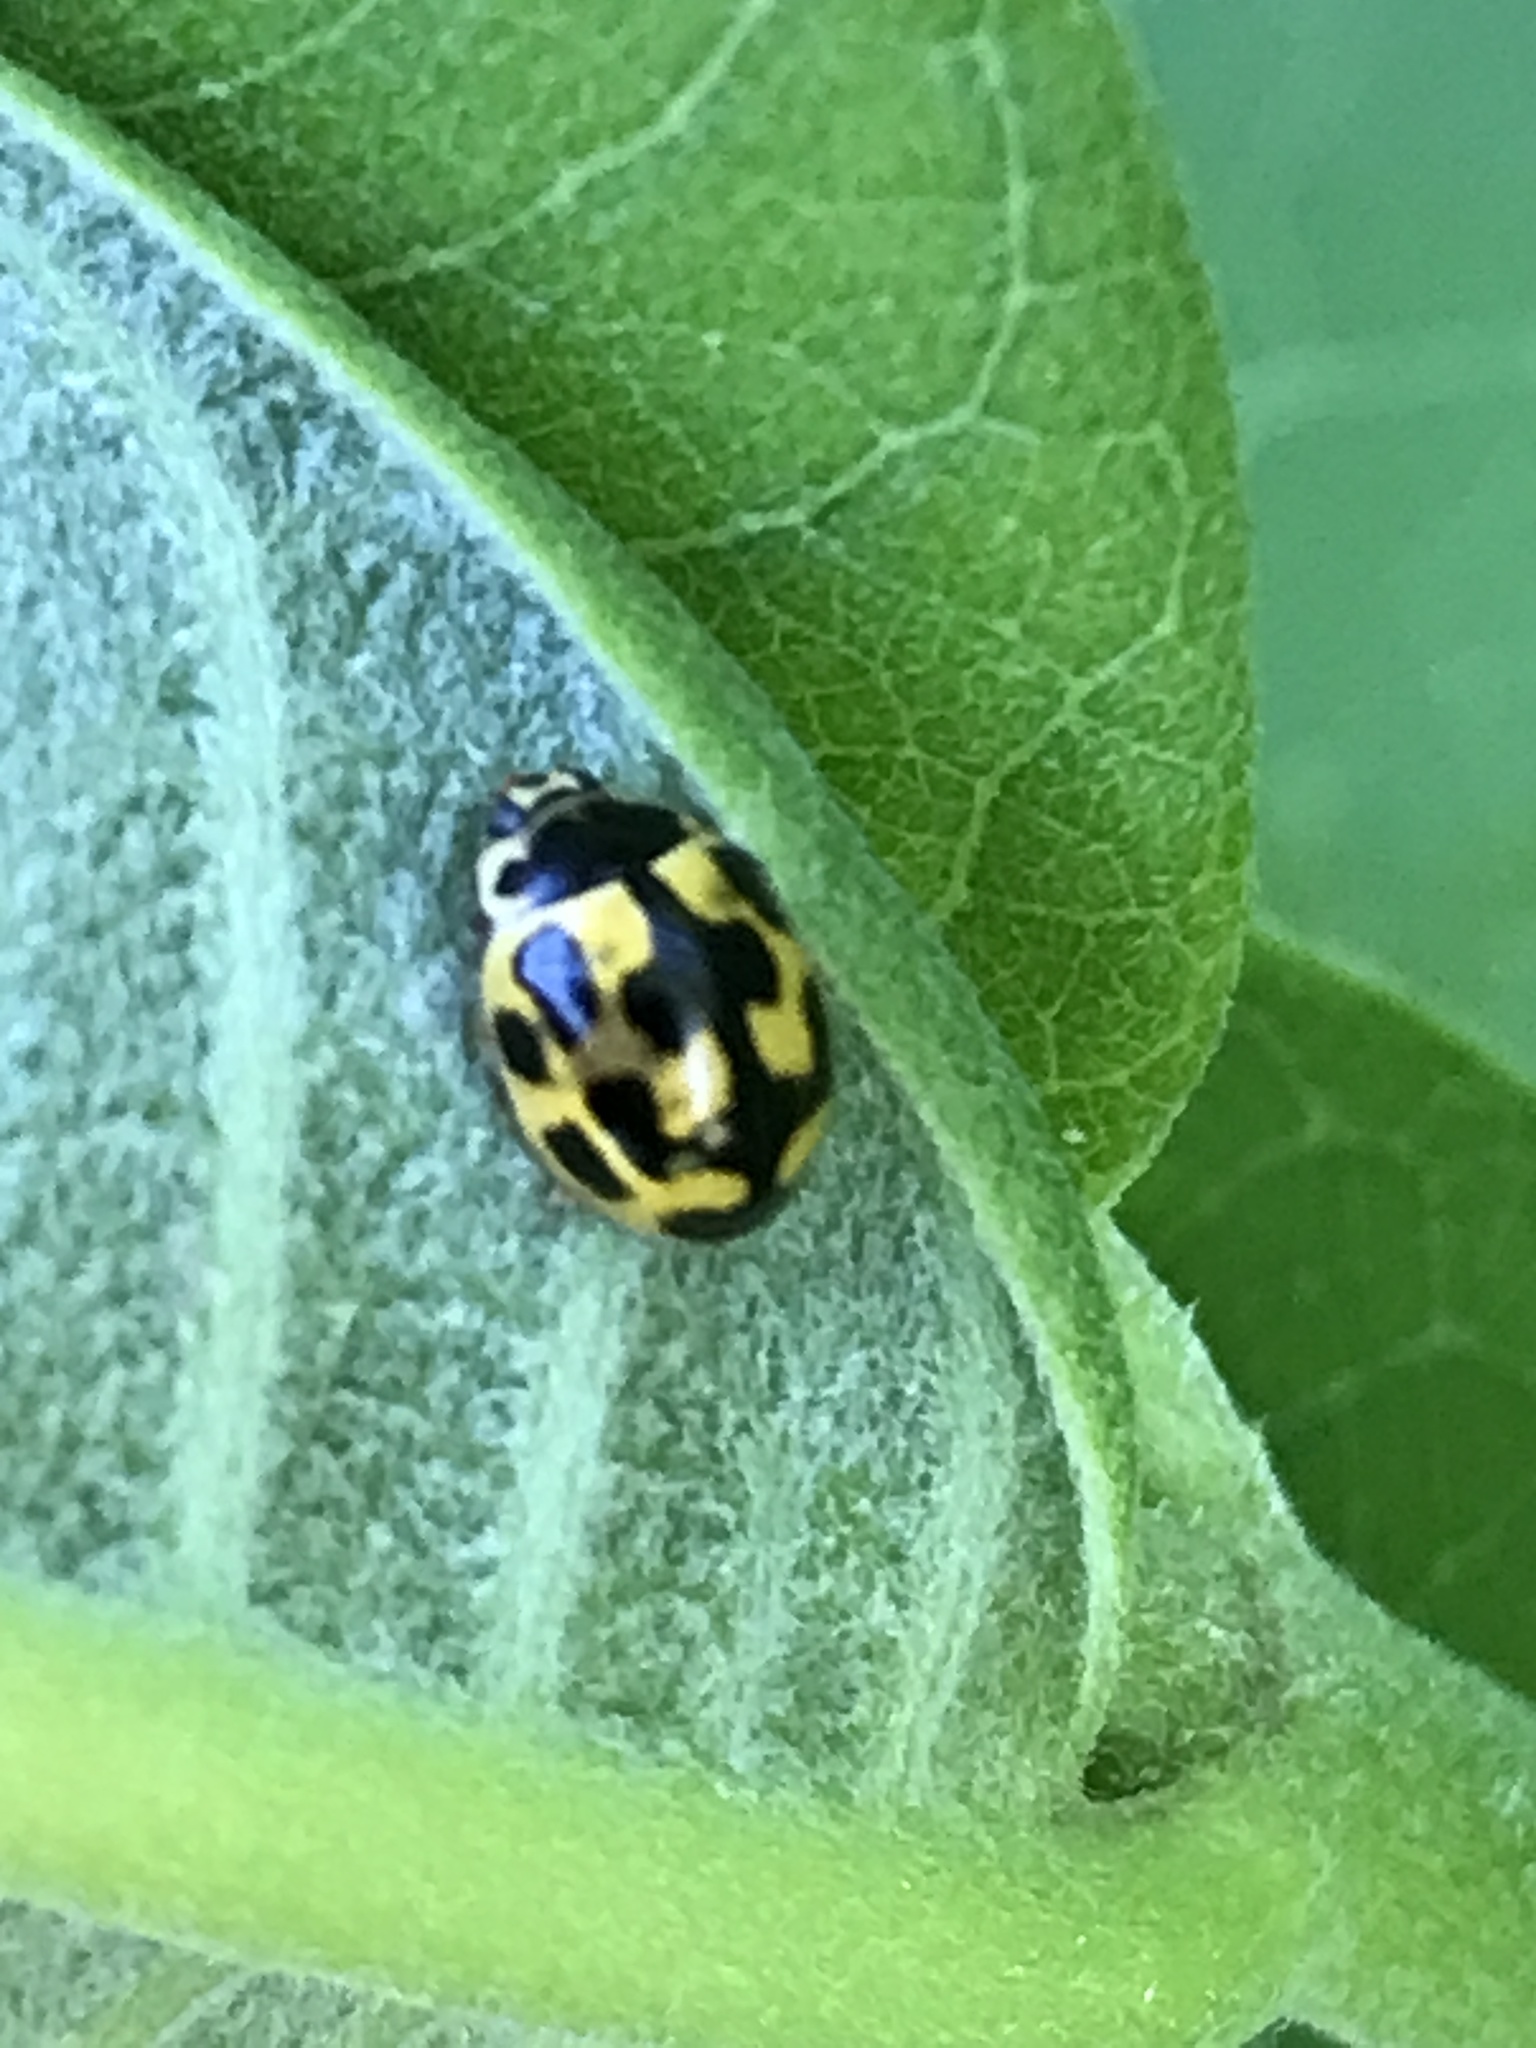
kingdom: Animalia
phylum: Arthropoda
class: Insecta
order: Coleoptera
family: Coccinellidae
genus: Propylaea
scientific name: Propylaea quatuordecimpunctata
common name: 14-spotted ladybird beetle
